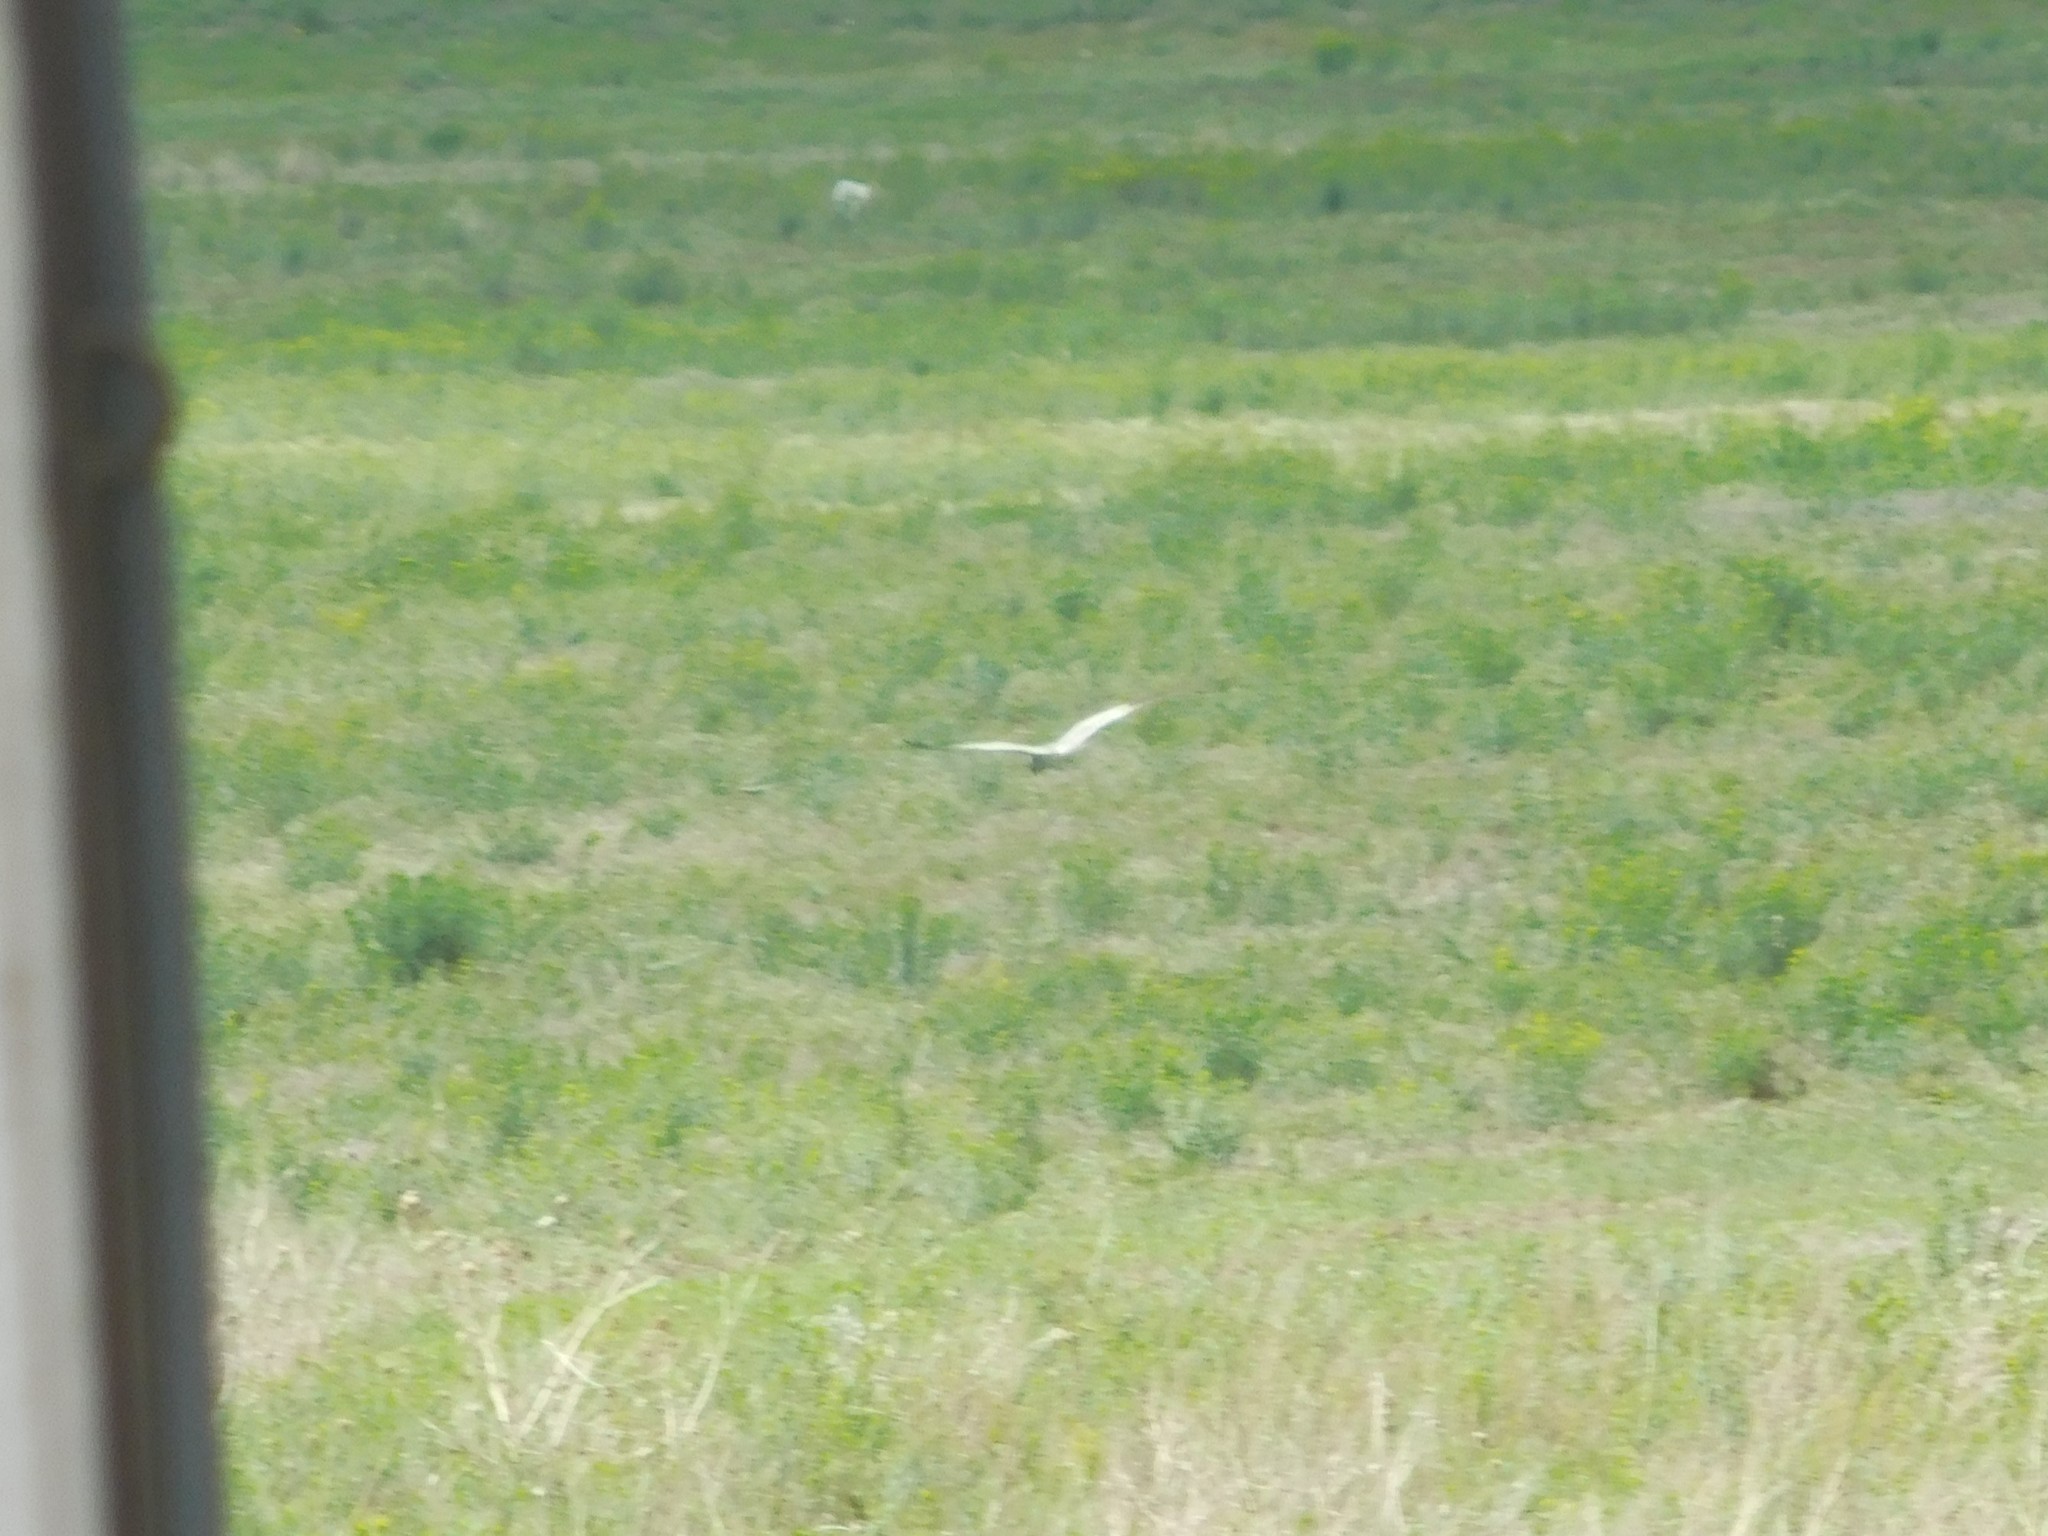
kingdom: Animalia
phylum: Chordata
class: Aves
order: Accipitriformes
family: Accipitridae
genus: Circus
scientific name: Circus pygargus
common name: Montagu's harrier
